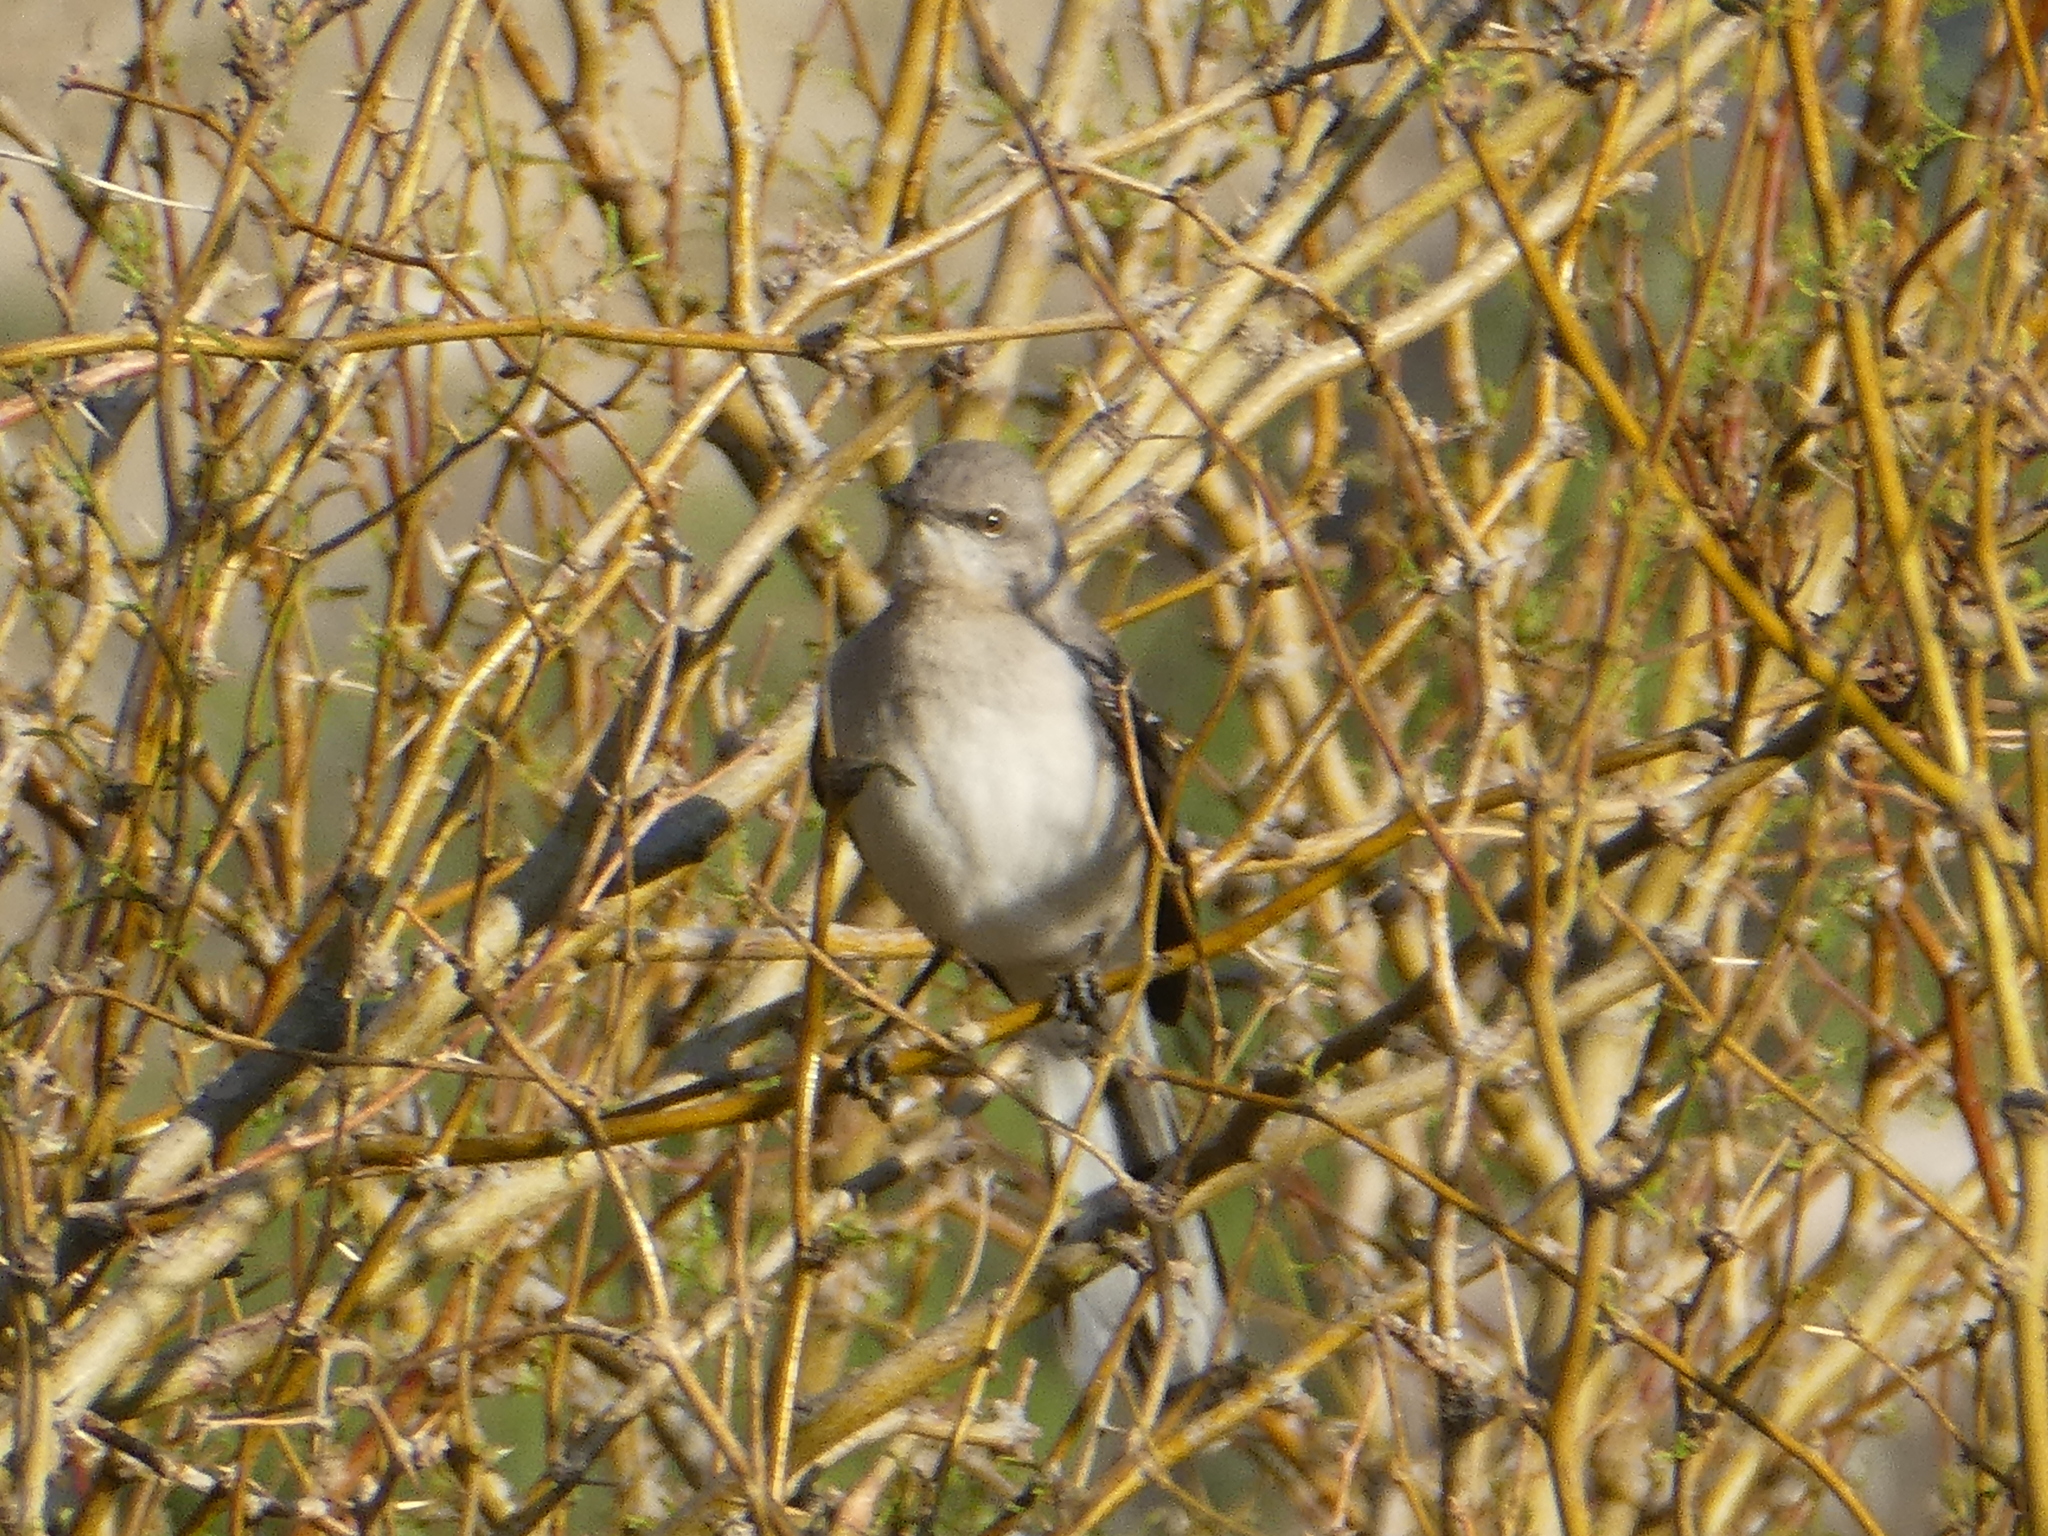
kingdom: Animalia
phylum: Chordata
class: Aves
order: Passeriformes
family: Mimidae
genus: Mimus
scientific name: Mimus polyglottos
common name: Northern mockingbird
